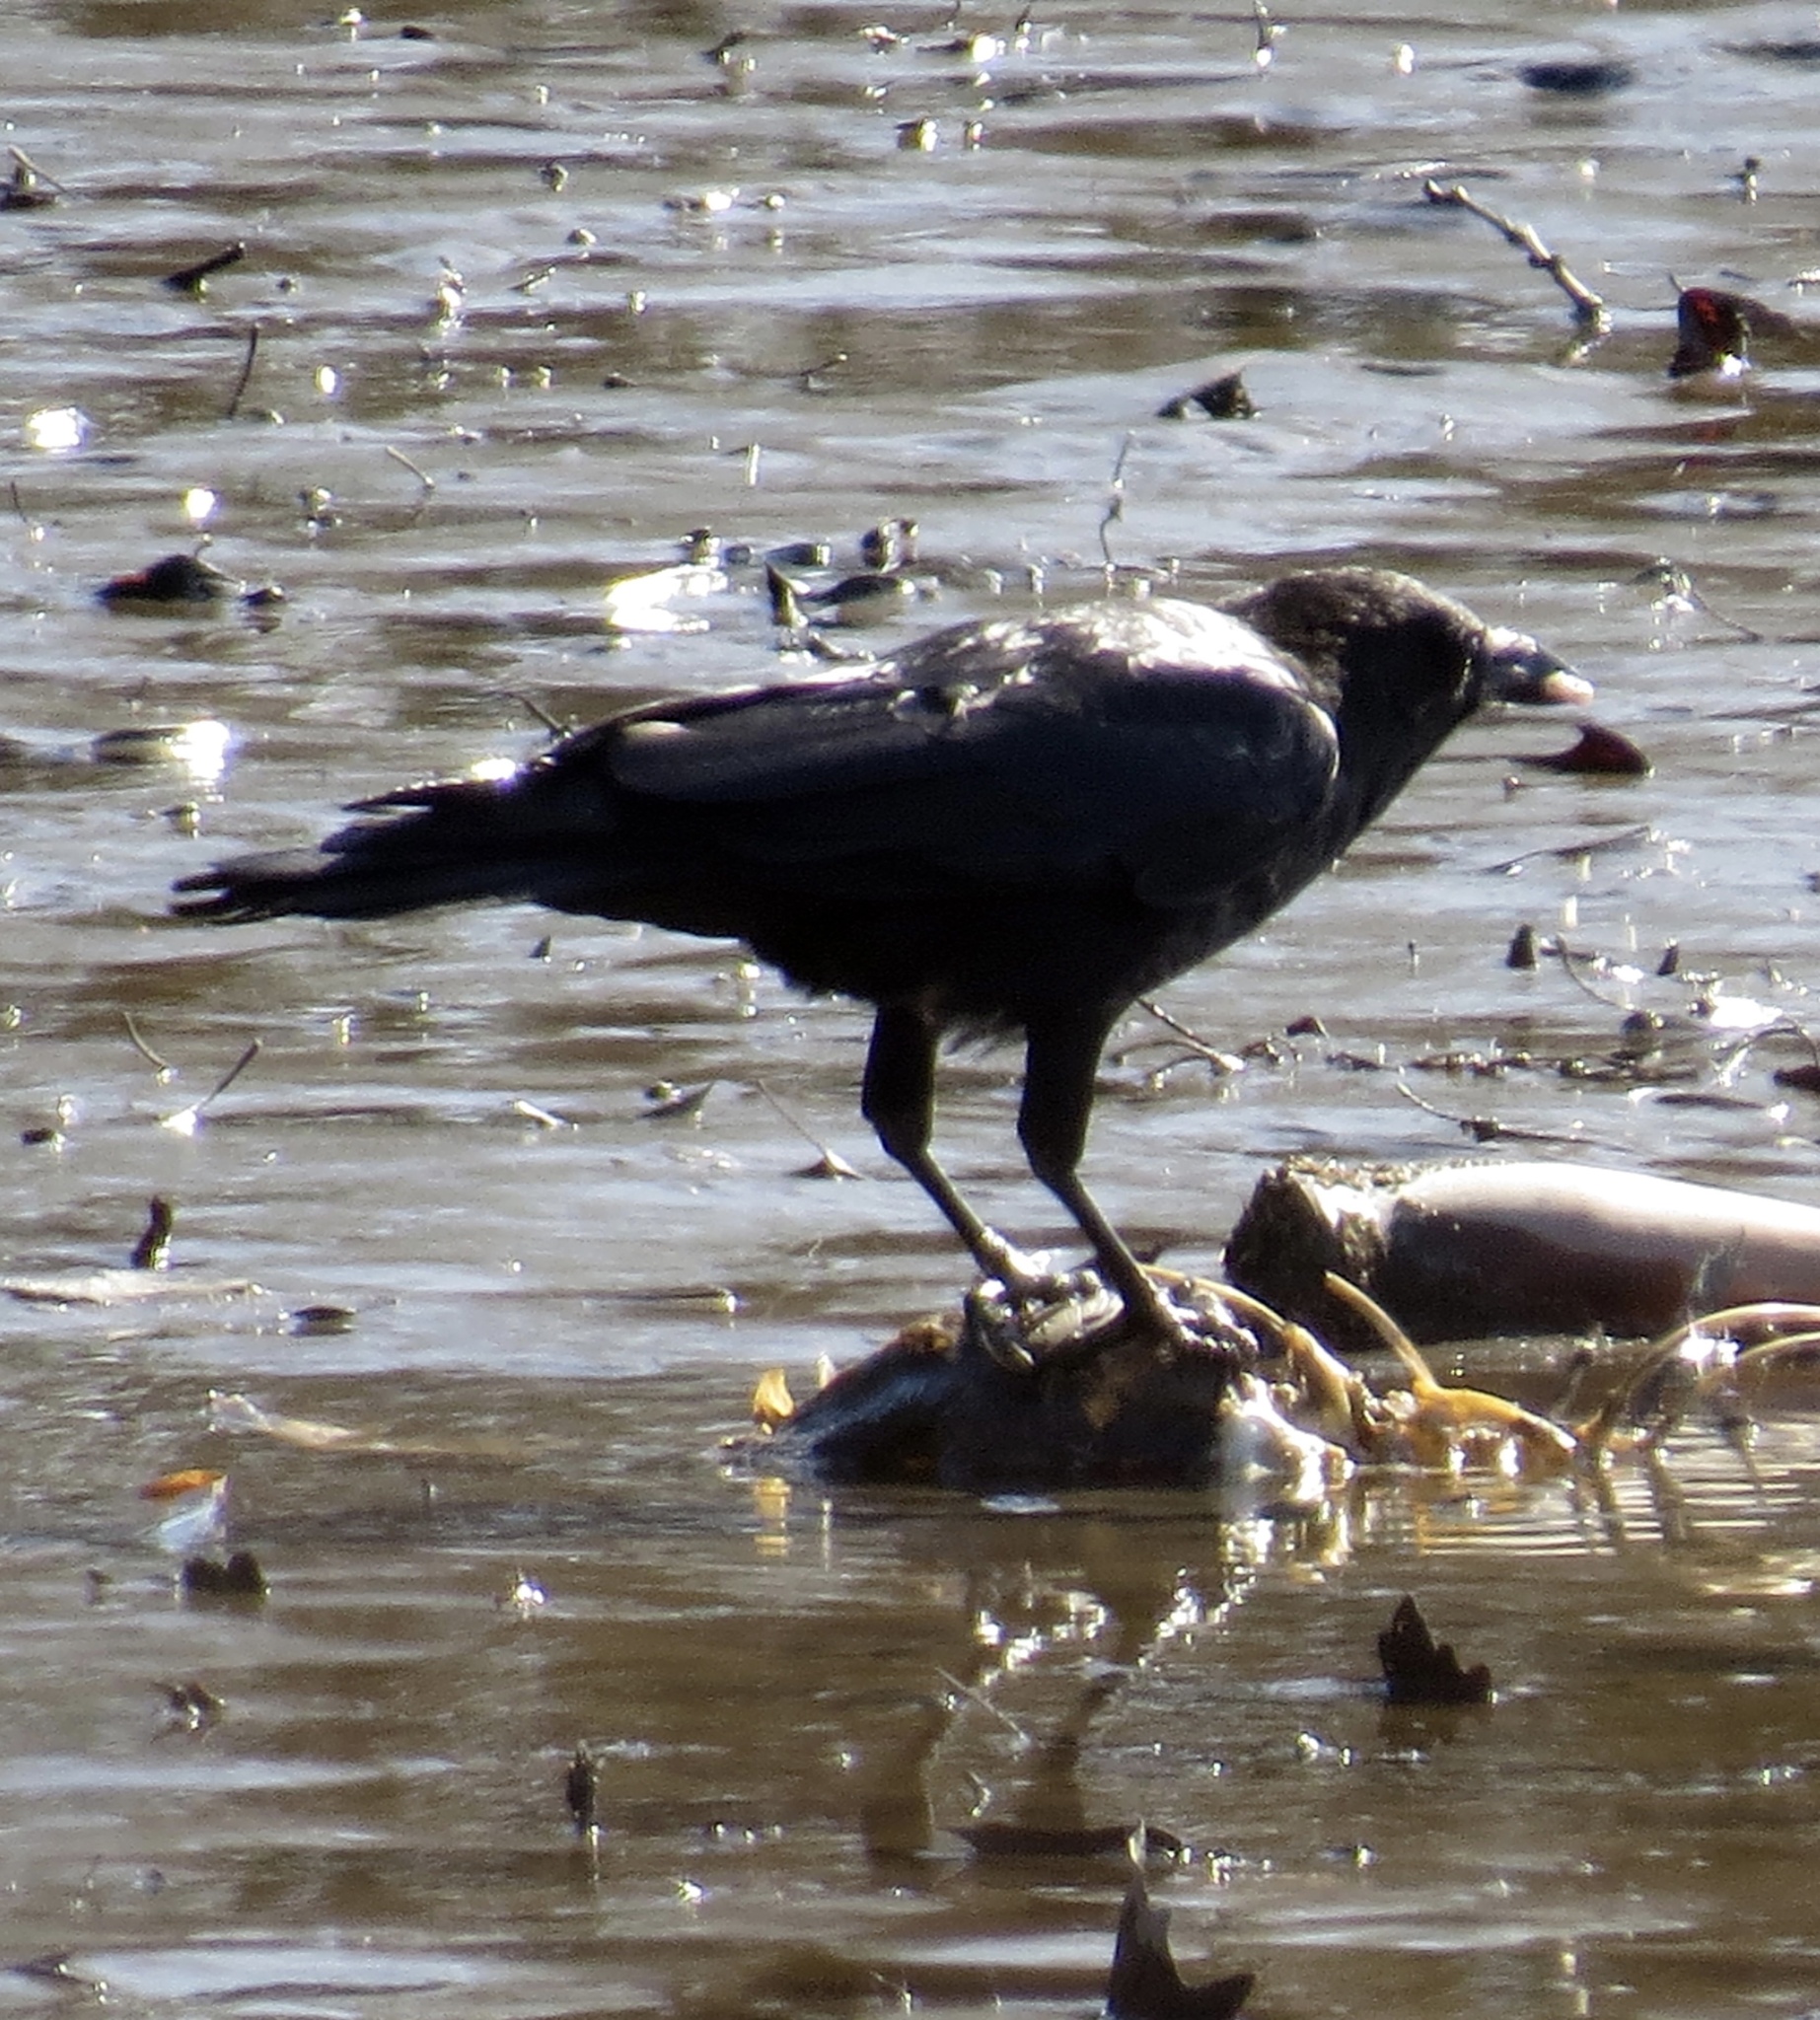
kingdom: Animalia
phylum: Chordata
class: Aves
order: Passeriformes
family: Corvidae
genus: Corvus
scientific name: Corvus ossifragus
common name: Fish crow
